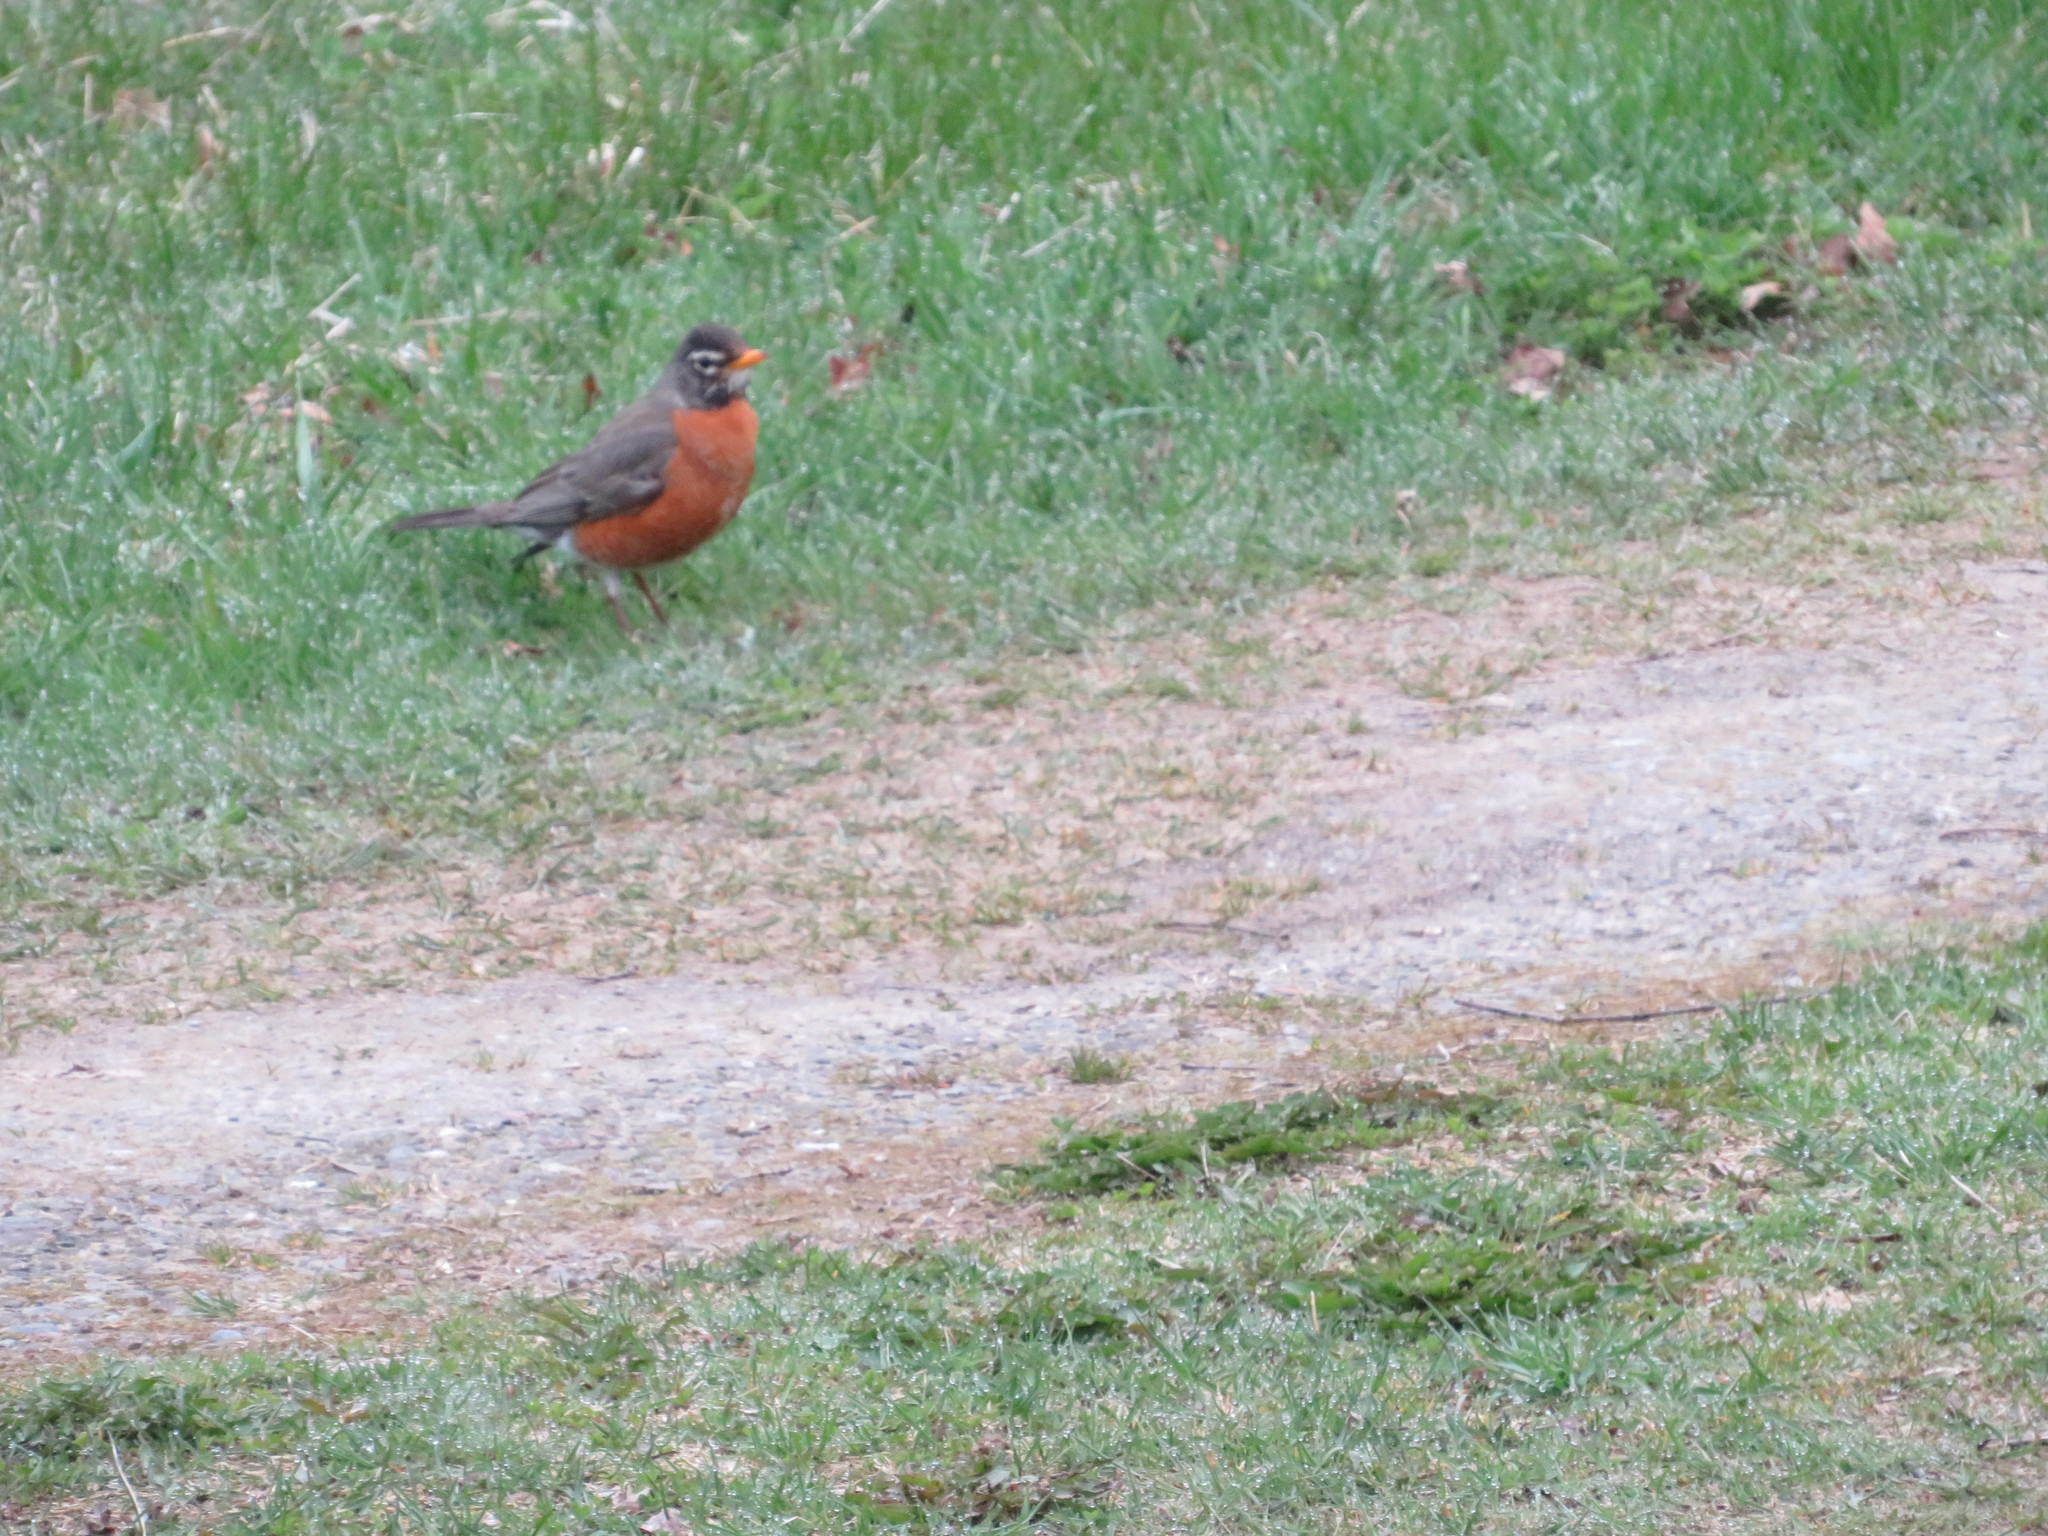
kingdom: Animalia
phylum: Chordata
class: Aves
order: Passeriformes
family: Turdidae
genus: Turdus
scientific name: Turdus migratorius
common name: American robin
